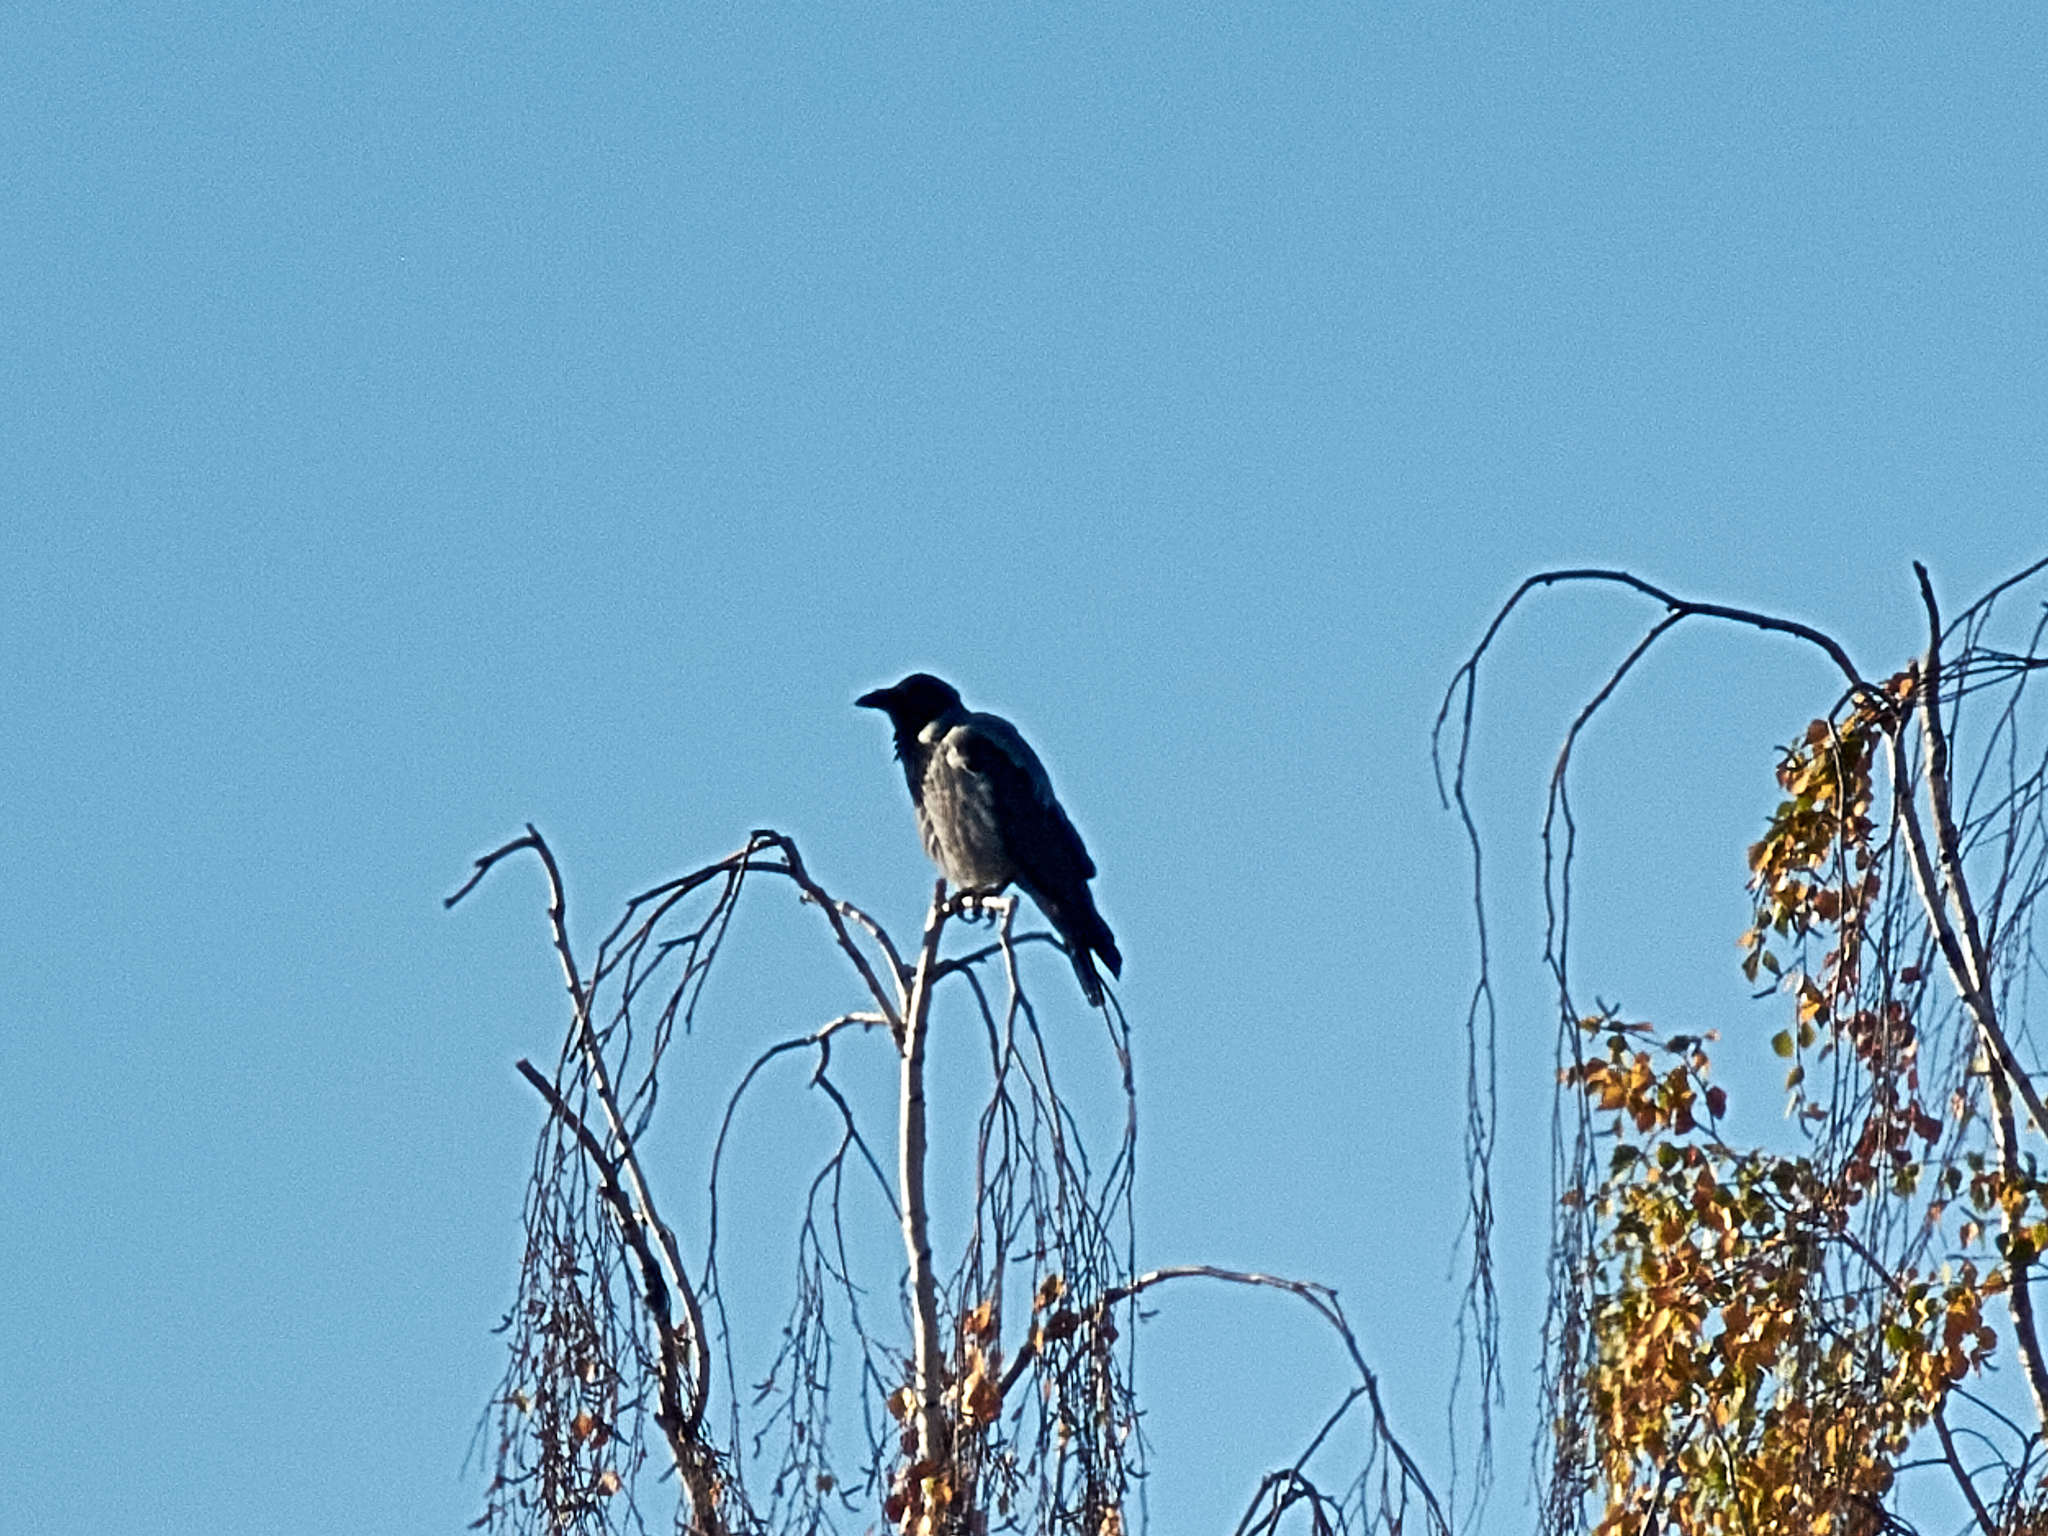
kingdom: Animalia
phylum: Chordata
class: Aves
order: Passeriformes
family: Corvidae
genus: Corvus
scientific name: Corvus cornix
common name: Hooded crow
